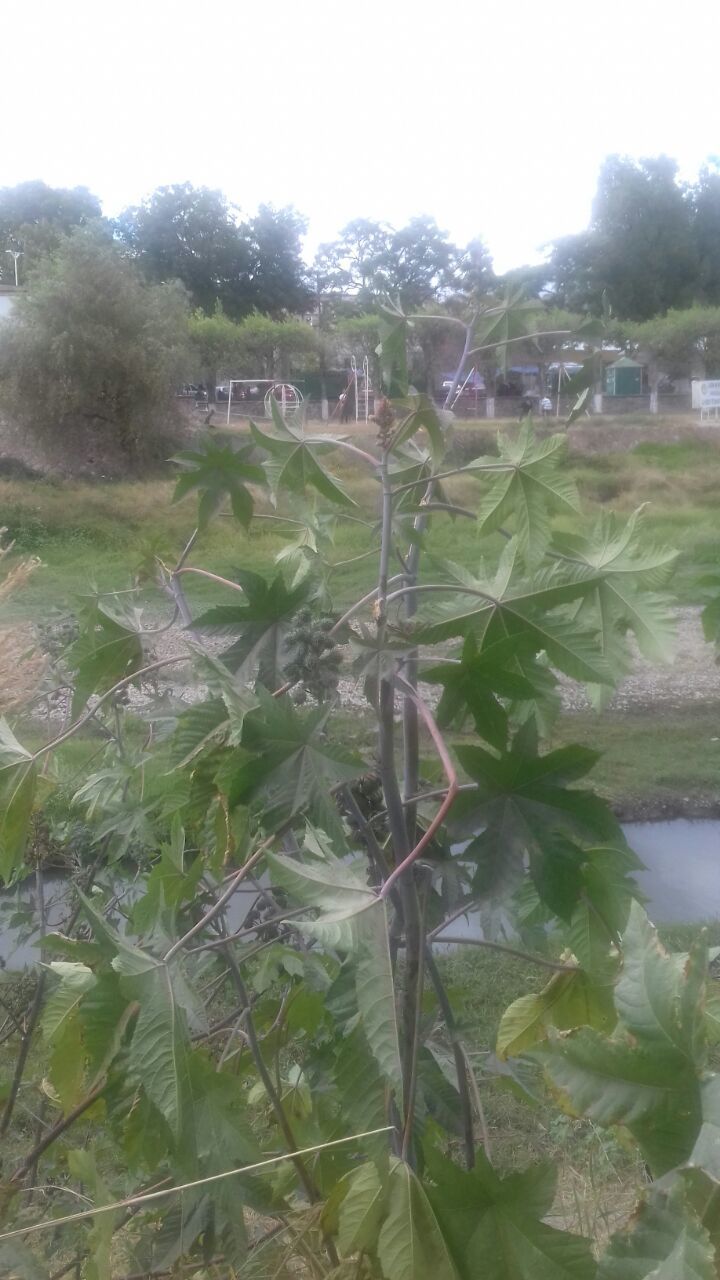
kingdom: Plantae
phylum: Tracheophyta
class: Magnoliopsida
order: Malpighiales
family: Euphorbiaceae
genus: Ricinus
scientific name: Ricinus communis
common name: Castor-oil-plant
